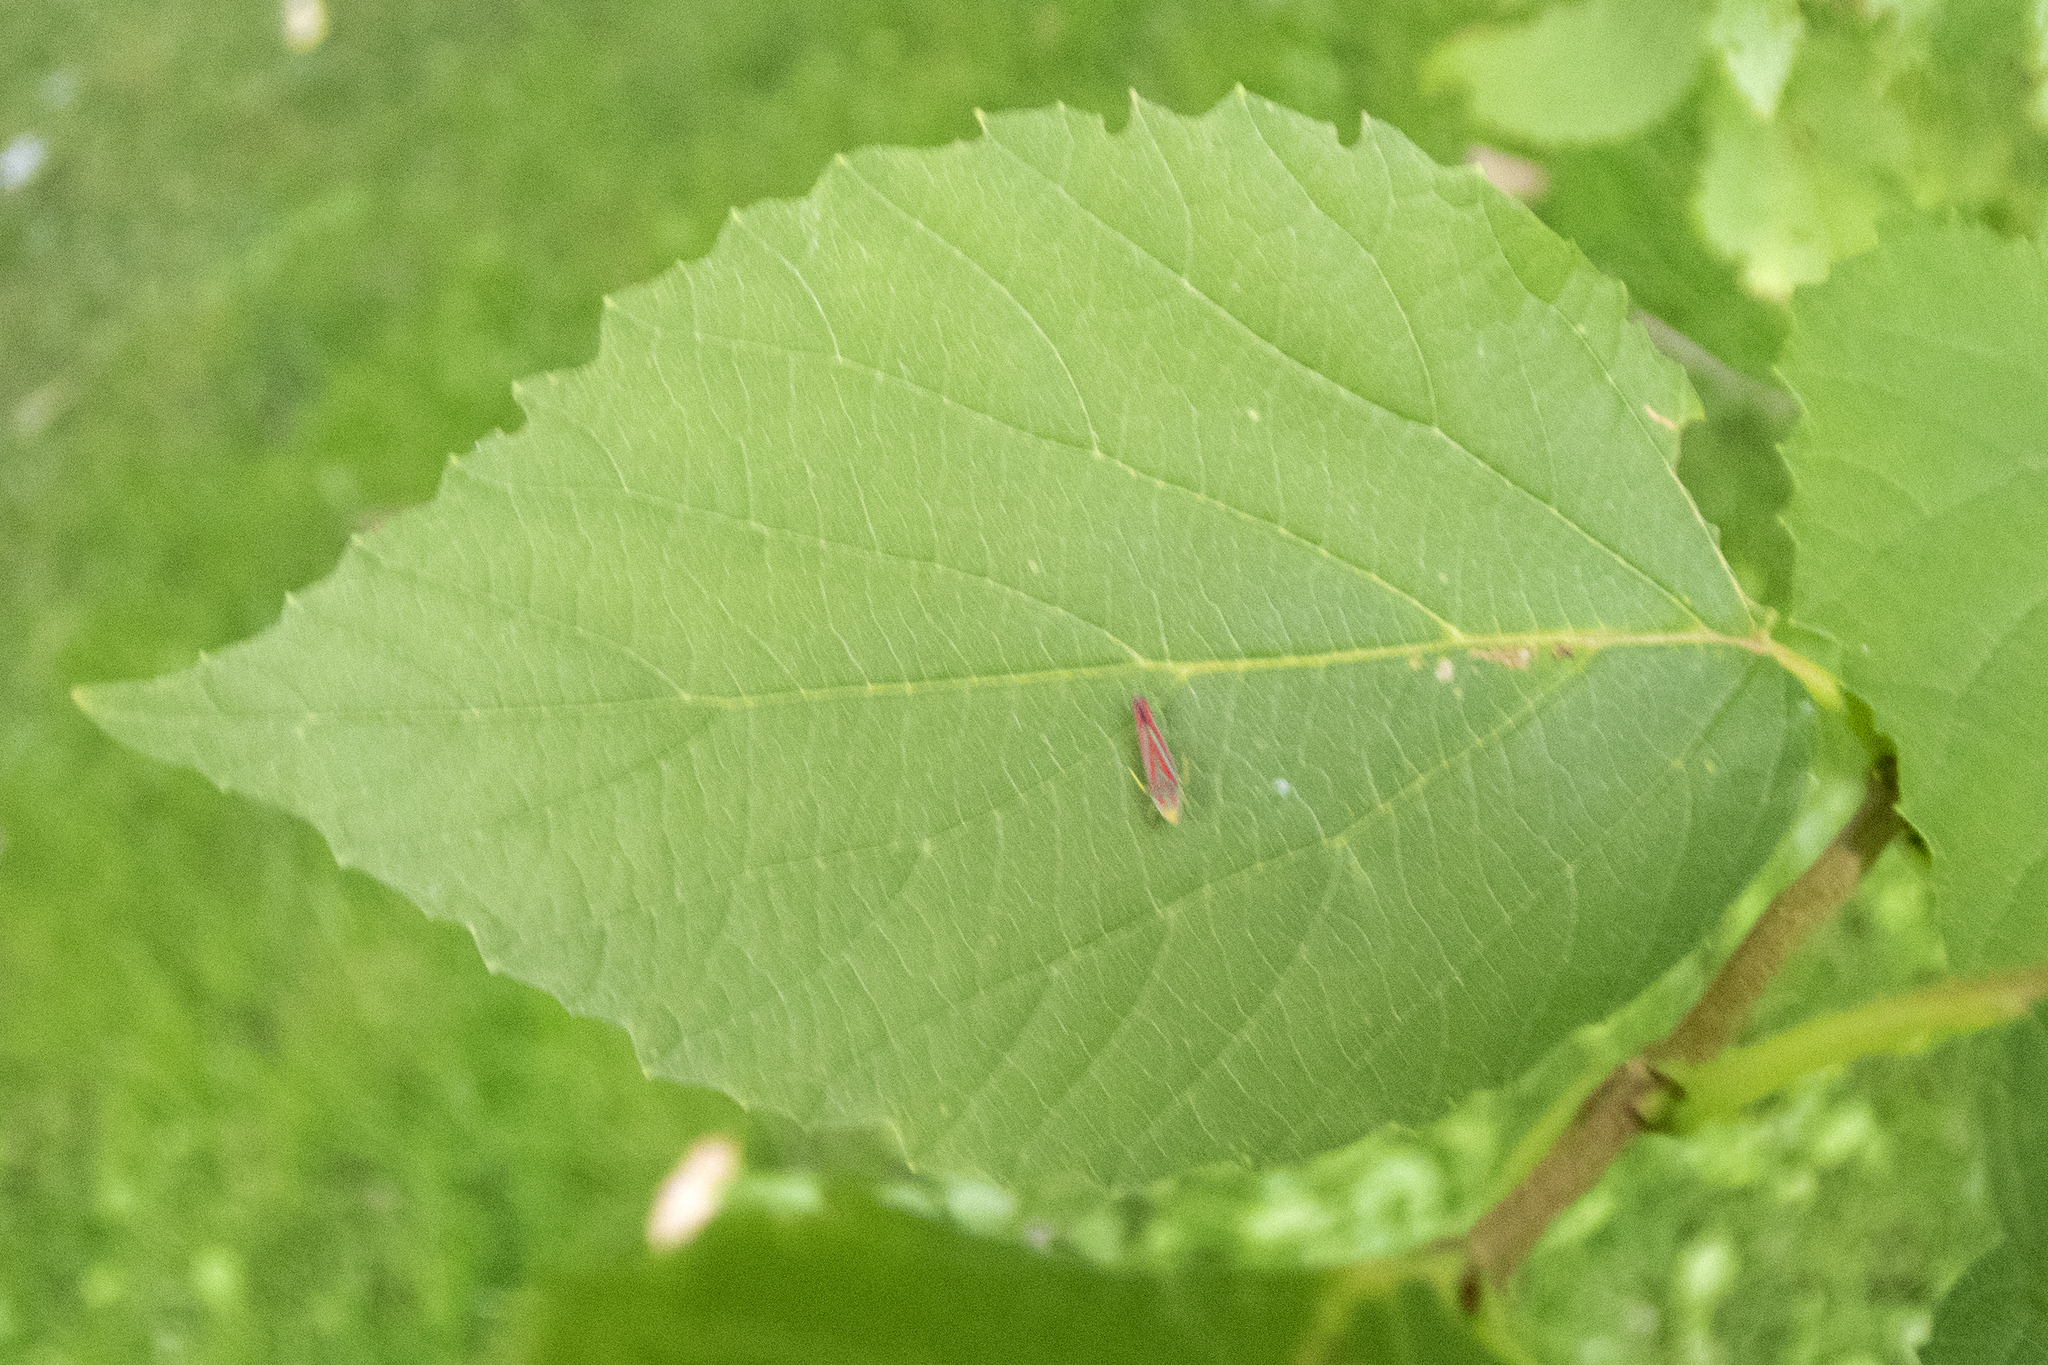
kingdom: Animalia
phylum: Arthropoda
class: Insecta
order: Hemiptera
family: Cicadellidae
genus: Graphocephala
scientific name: Graphocephala coccinea
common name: Candy-striped leafhopper
